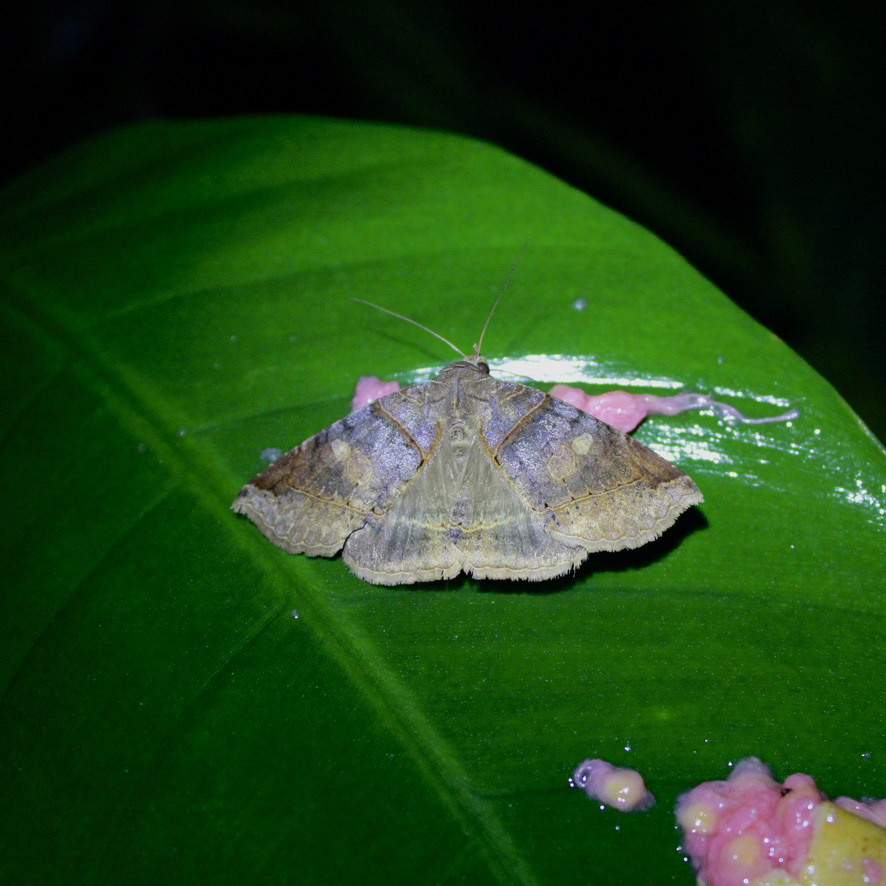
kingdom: Animalia
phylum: Arthropoda
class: Insecta
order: Lepidoptera
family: Erebidae
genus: Celiptera
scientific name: Celiptera levina
